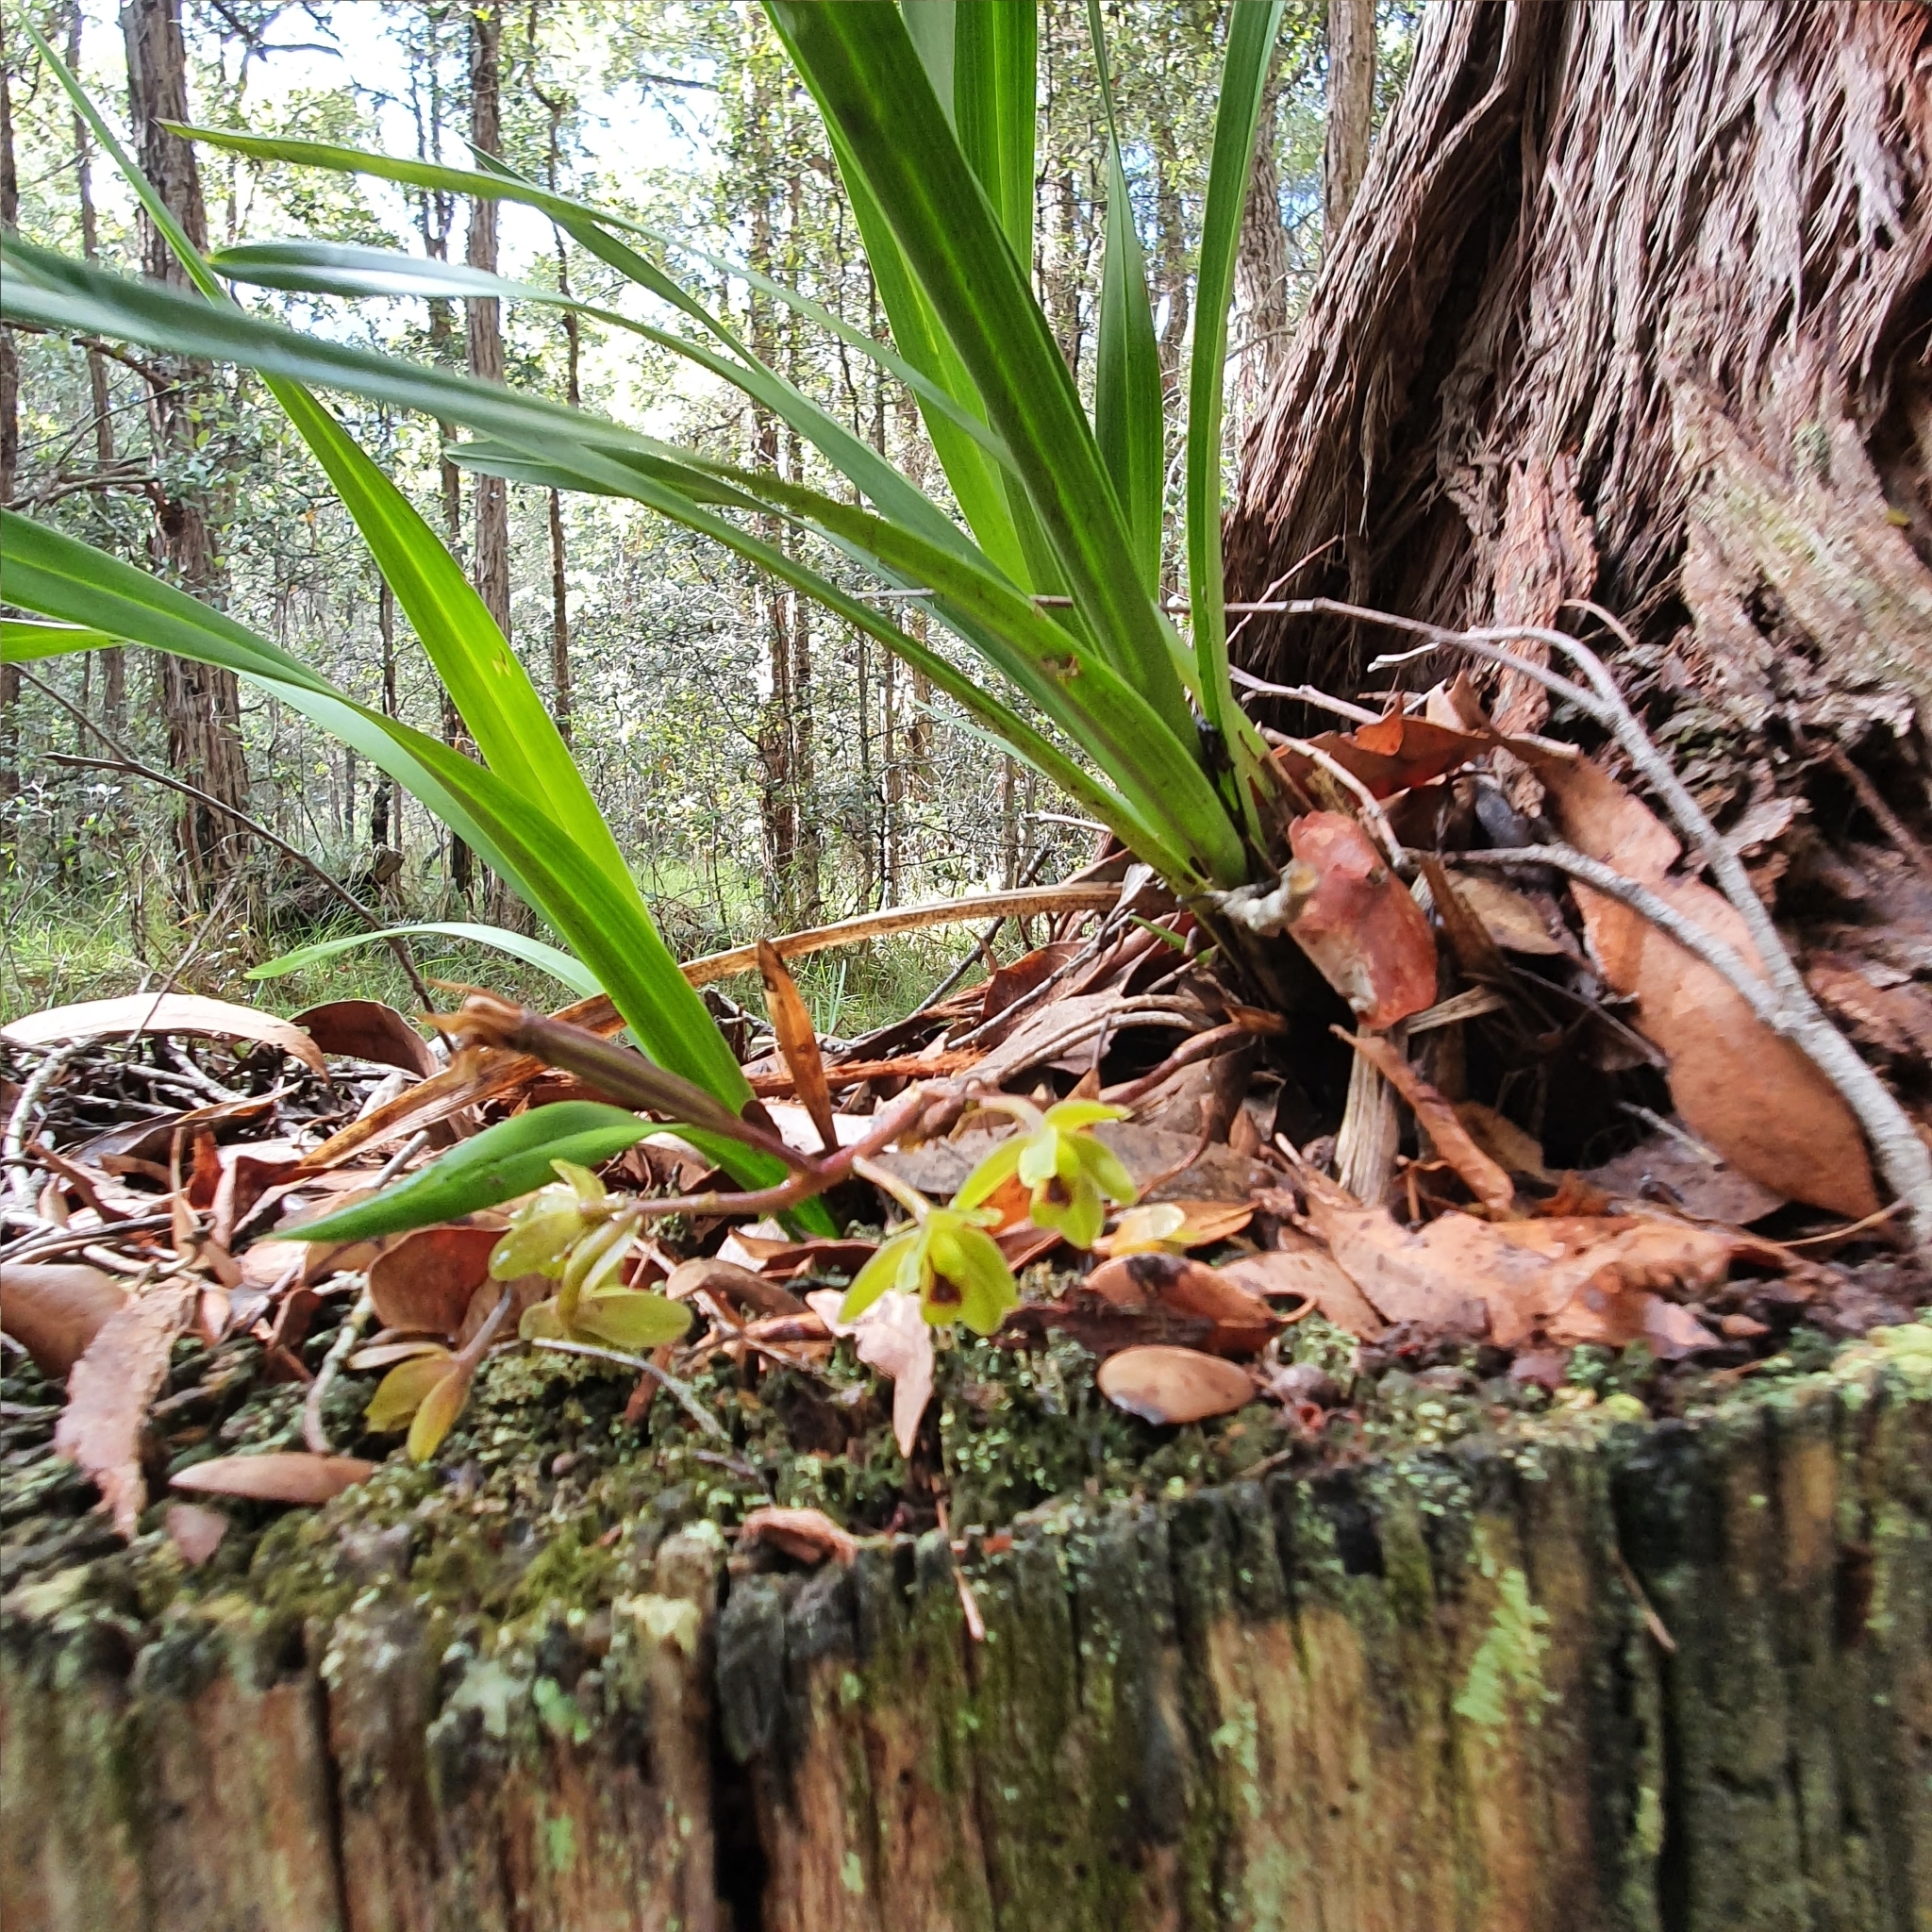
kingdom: Plantae
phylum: Tracheophyta
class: Liliopsida
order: Asparagales
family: Orchidaceae
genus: Cymbidium
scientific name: Cymbidium suave
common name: Snake orchid
